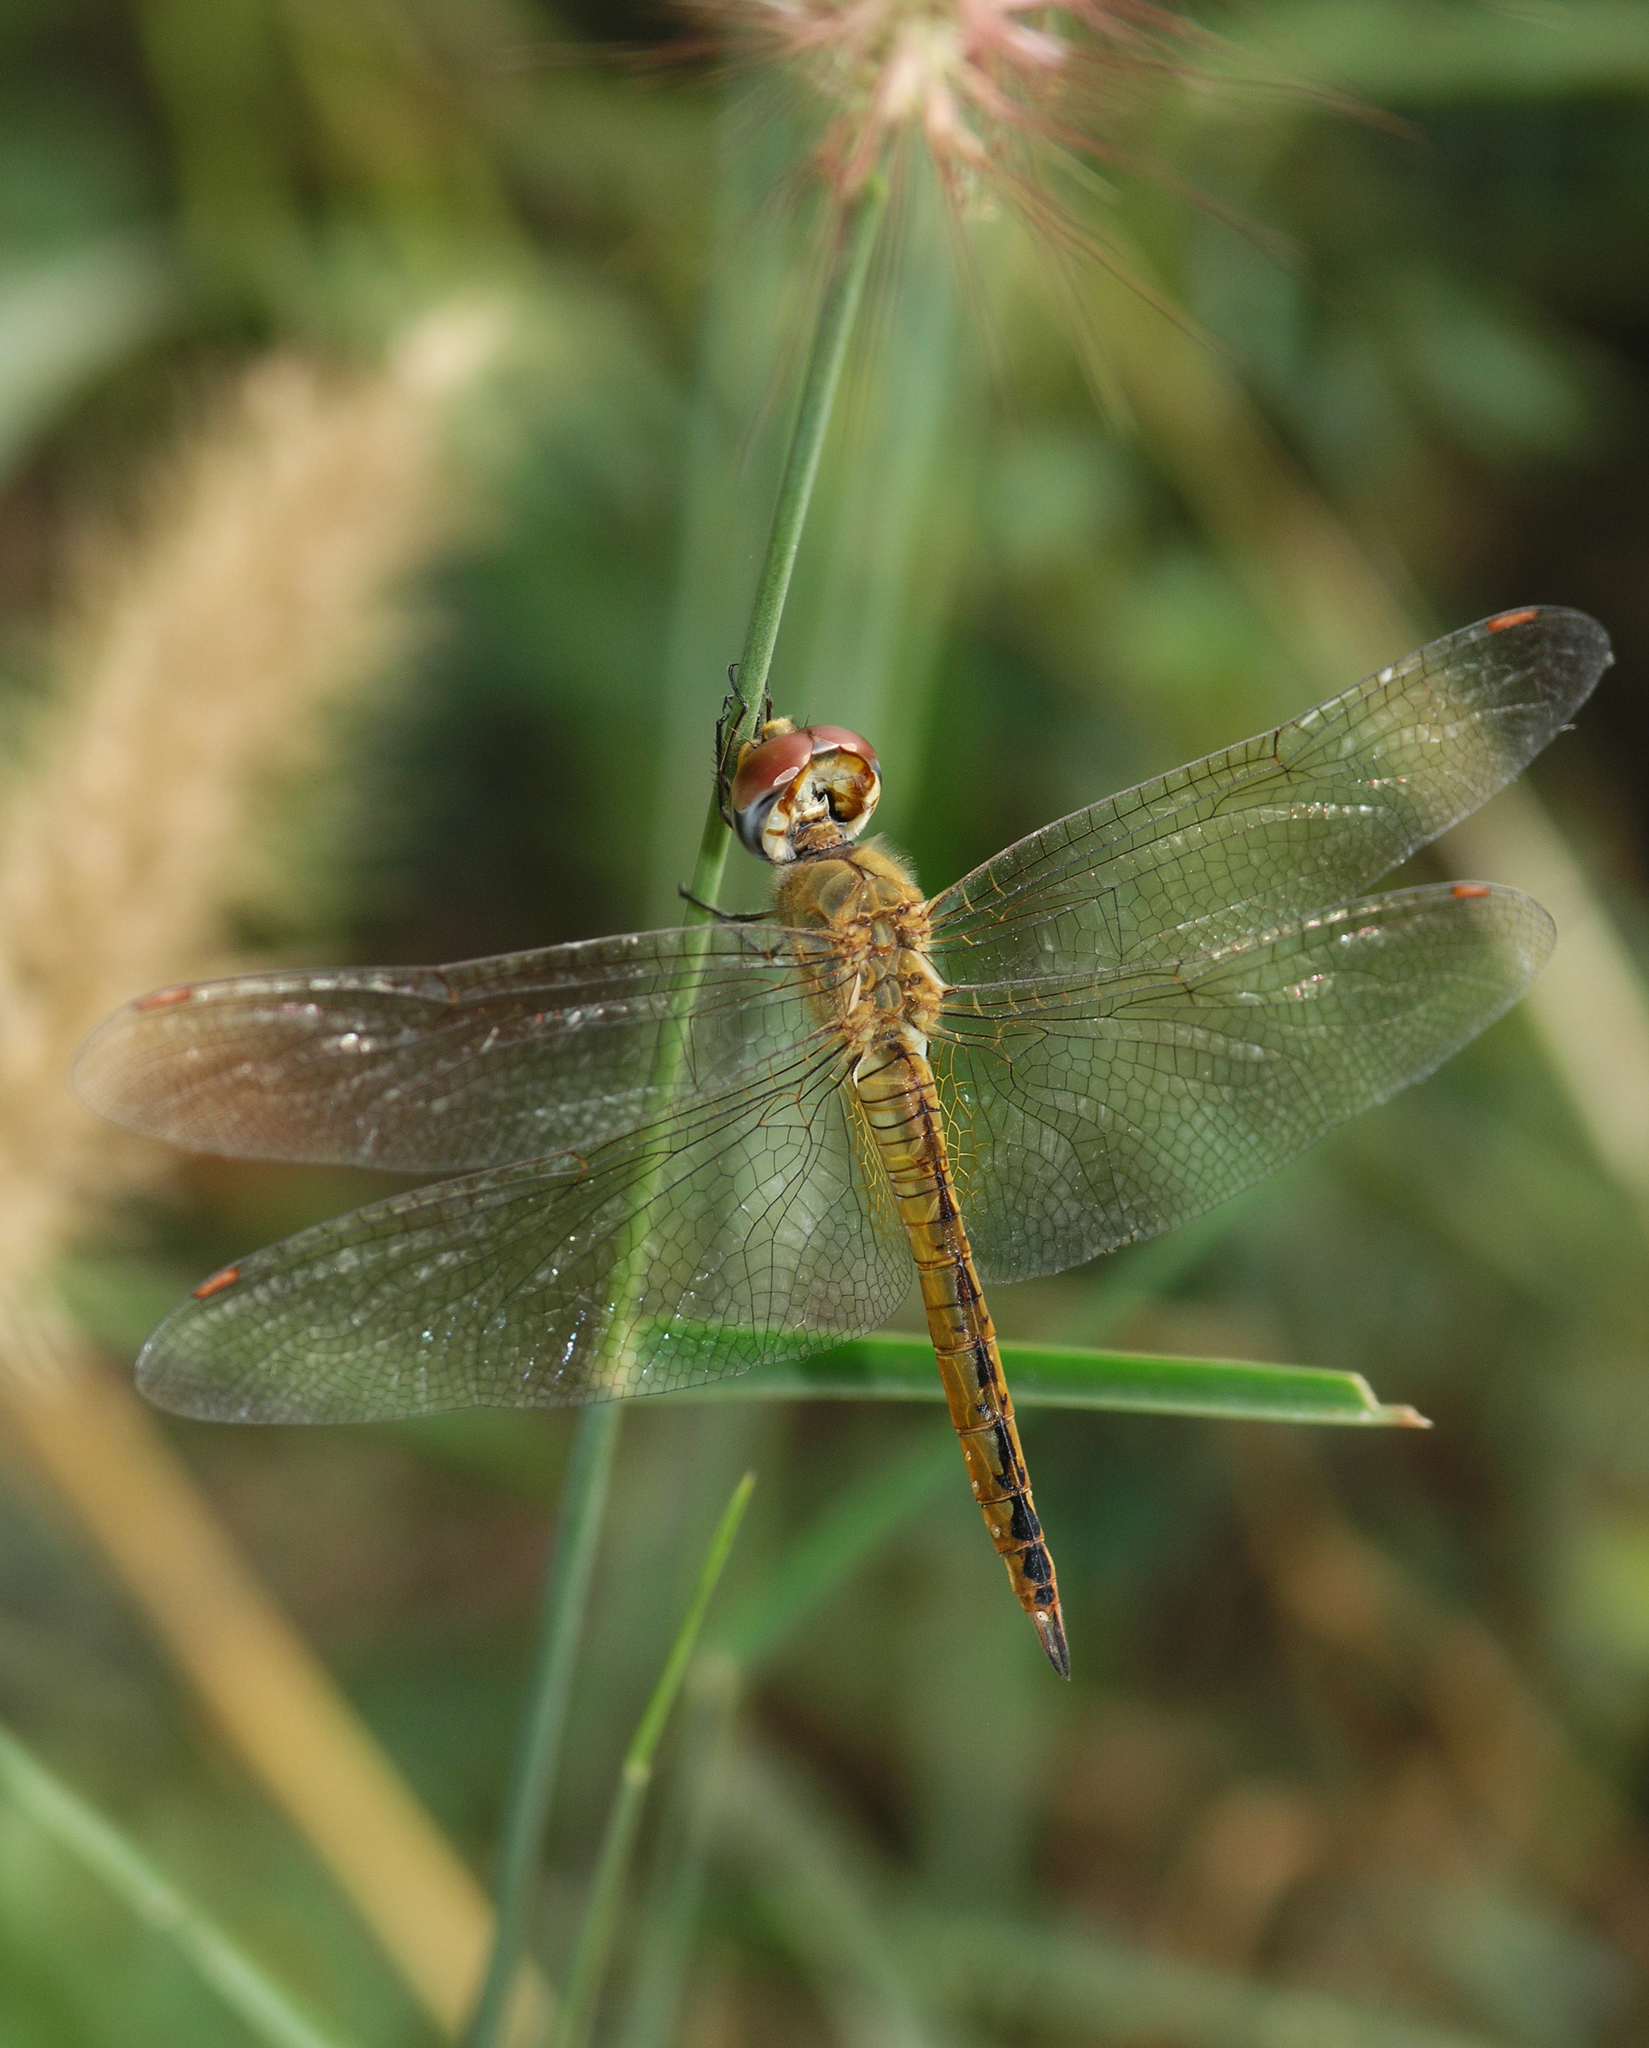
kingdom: Animalia
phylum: Arthropoda
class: Insecta
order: Odonata
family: Libellulidae
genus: Pantala
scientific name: Pantala flavescens
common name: Wandering glider
